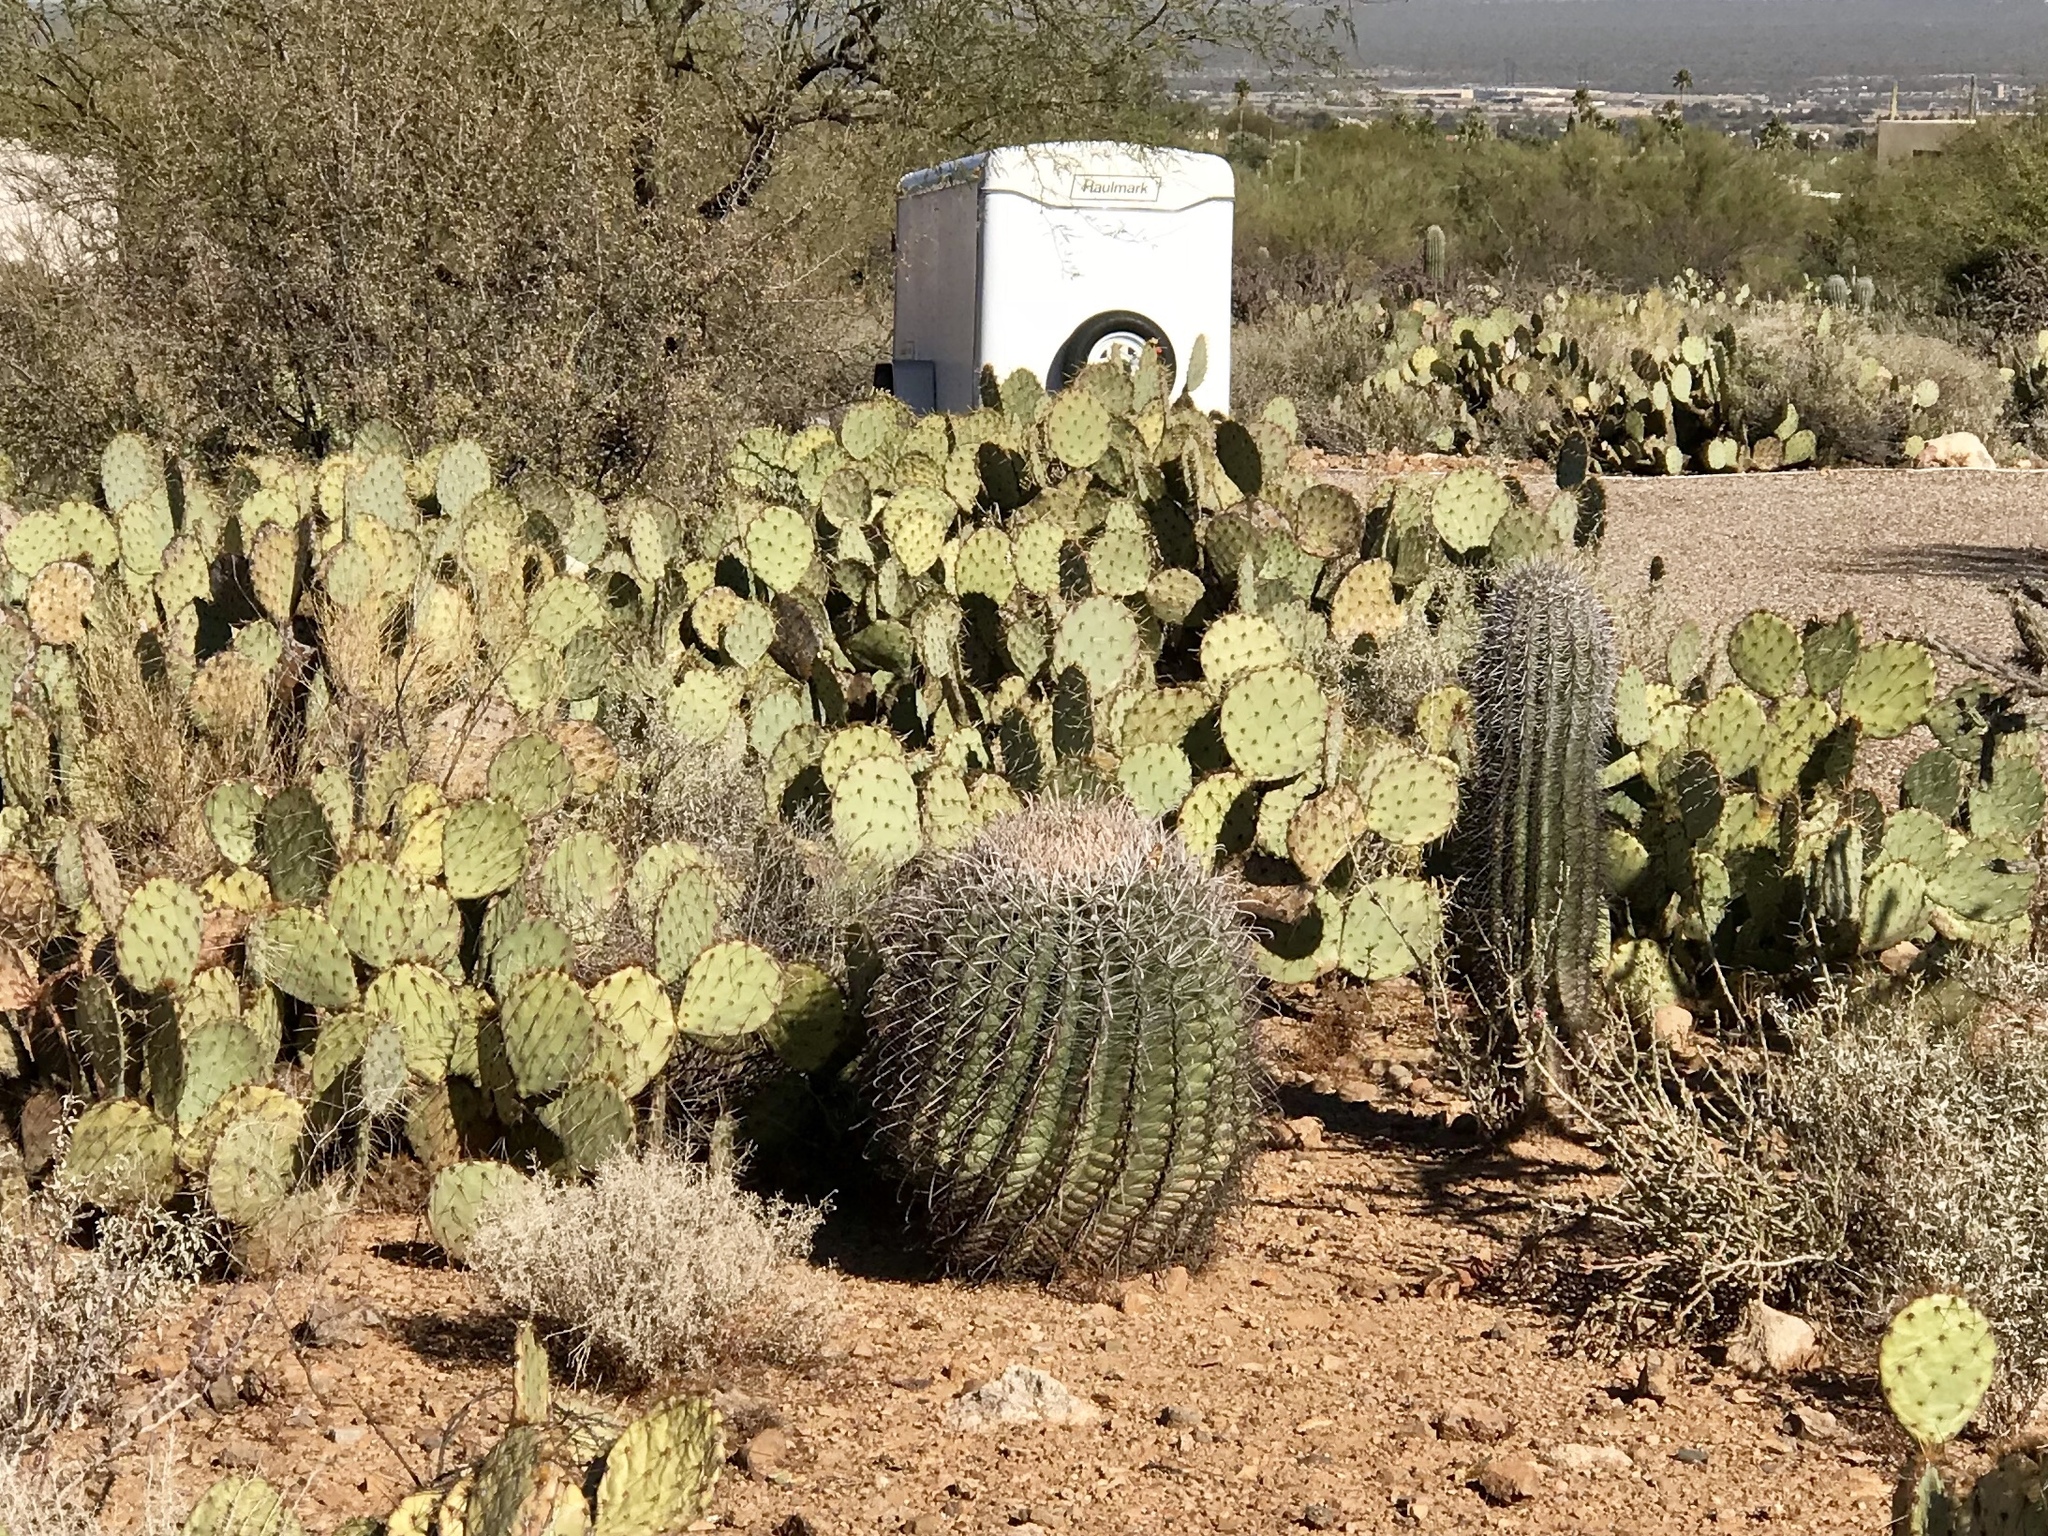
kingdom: Plantae
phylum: Tracheophyta
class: Magnoliopsida
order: Caryophyllales
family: Cactaceae
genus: Ferocactus
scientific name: Ferocactus wislizeni
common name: Candy barrel cactus
